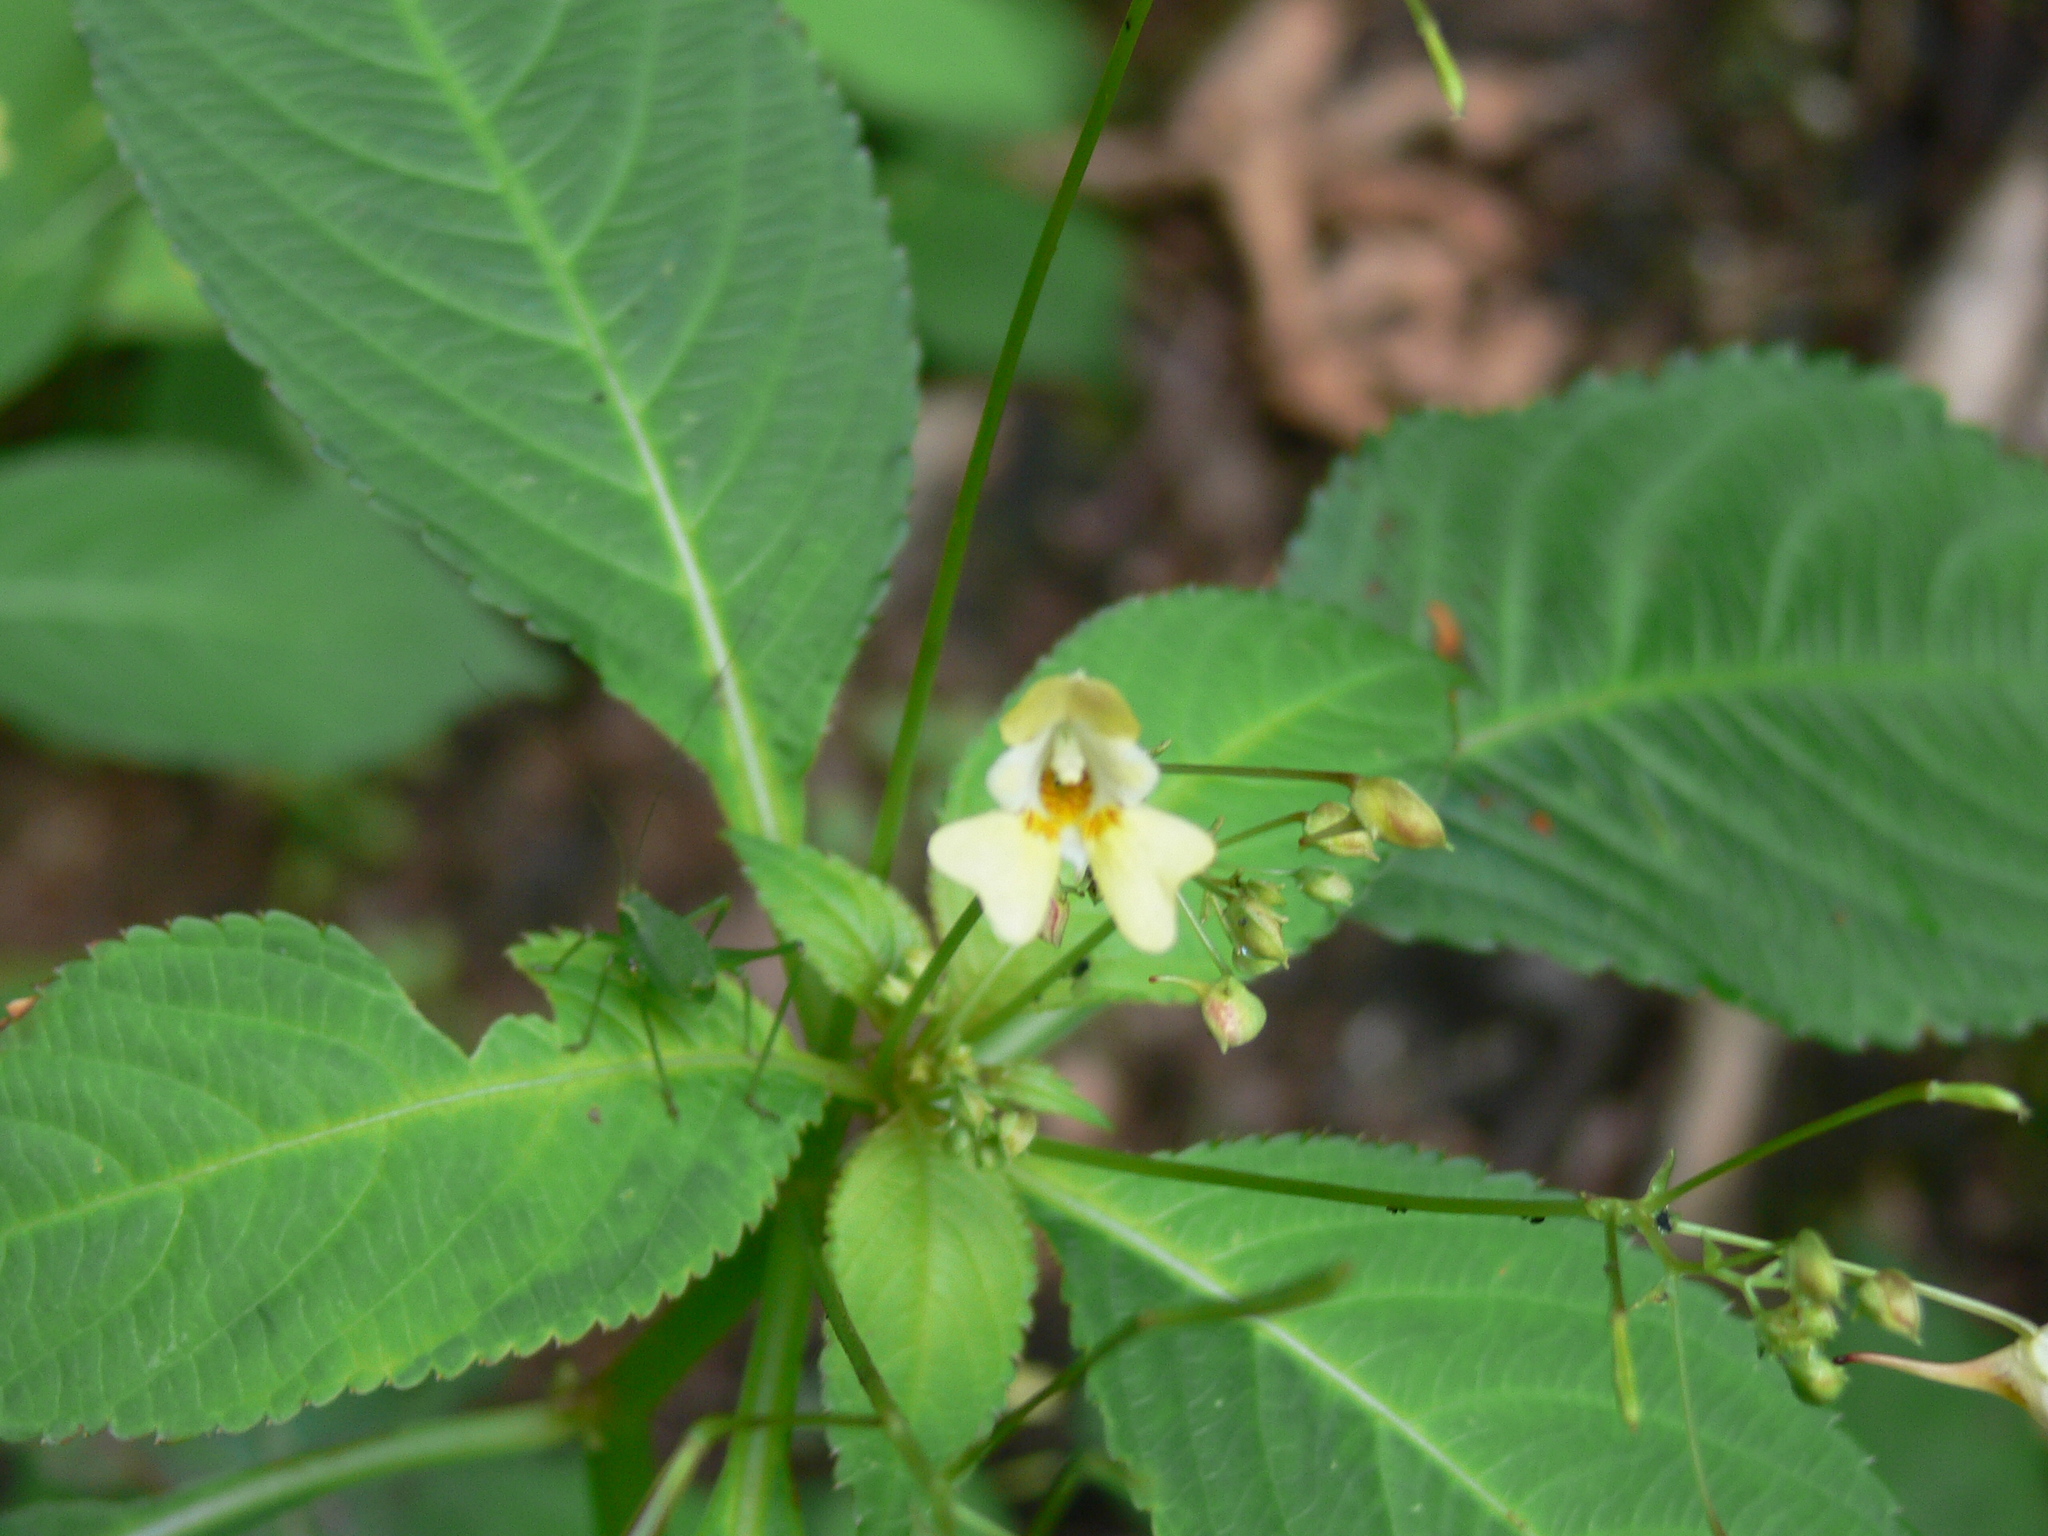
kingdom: Plantae
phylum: Tracheophyta
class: Magnoliopsida
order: Ericales
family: Balsaminaceae
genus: Impatiens
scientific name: Impatiens parviflora
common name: Small balsam
